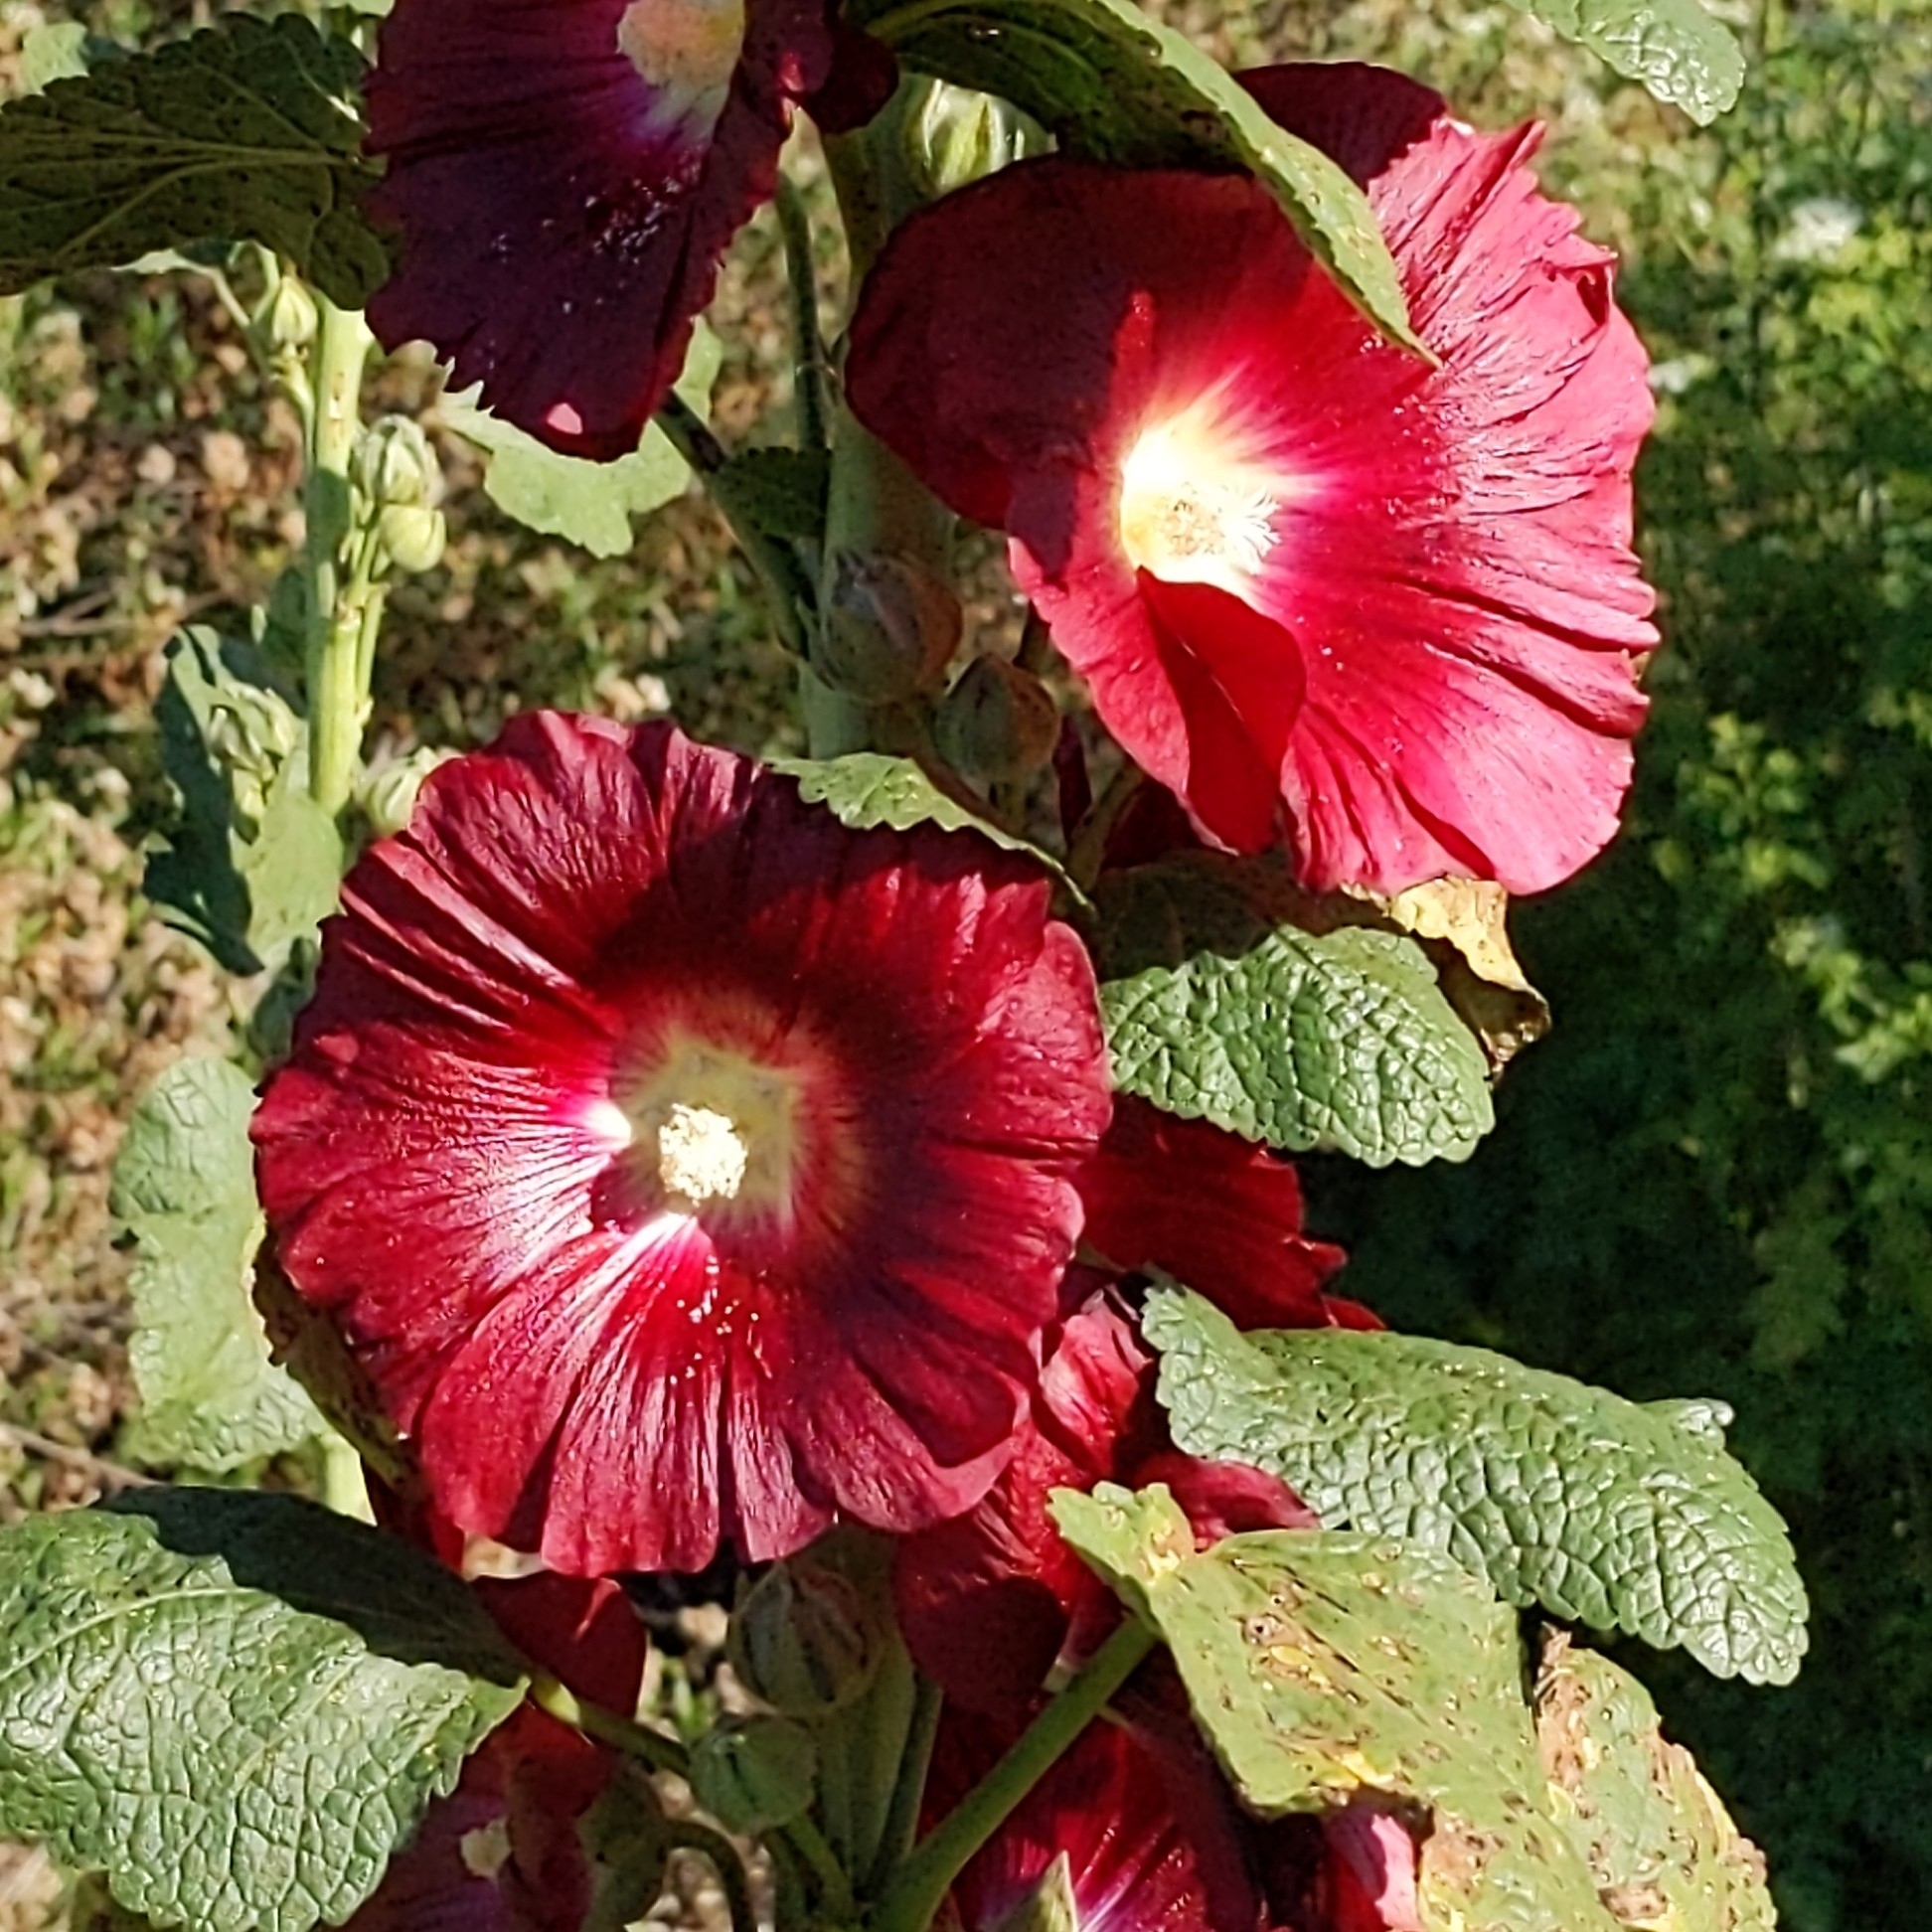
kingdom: Plantae
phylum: Tracheophyta
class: Magnoliopsida
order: Malvales
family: Malvaceae
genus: Alcea
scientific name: Alcea rosea
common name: Hollyhock
